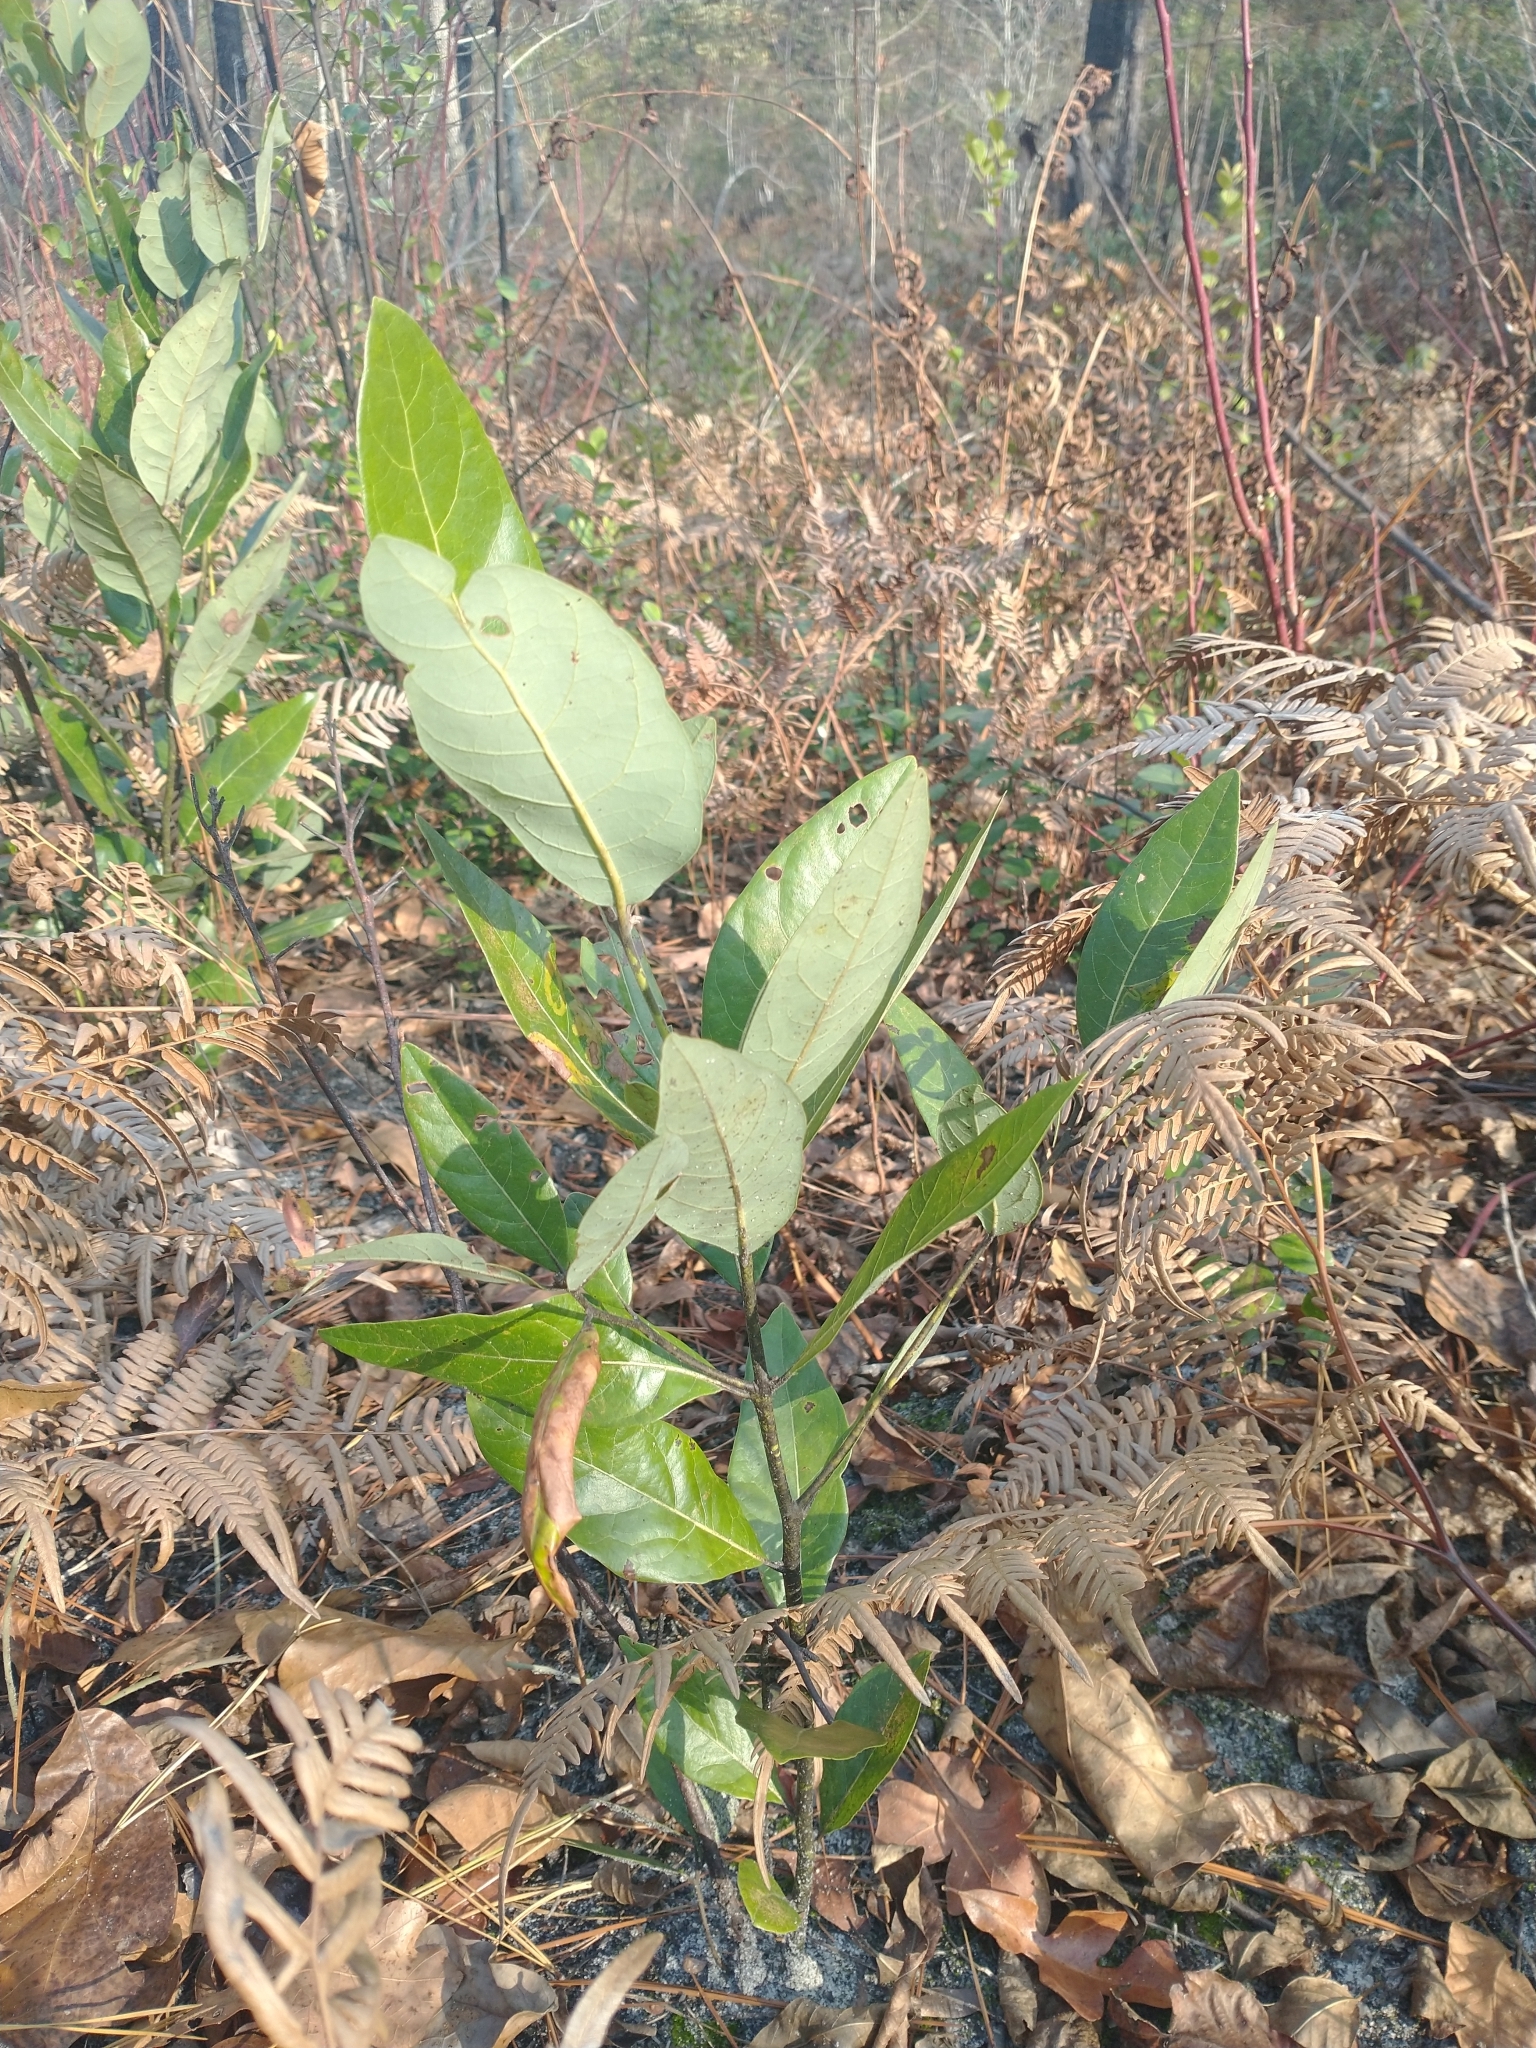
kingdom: Plantae
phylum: Tracheophyta
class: Magnoliopsida
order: Magnoliales
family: Magnoliaceae
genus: Magnolia
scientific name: Magnolia virginiana
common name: Swamp bay
